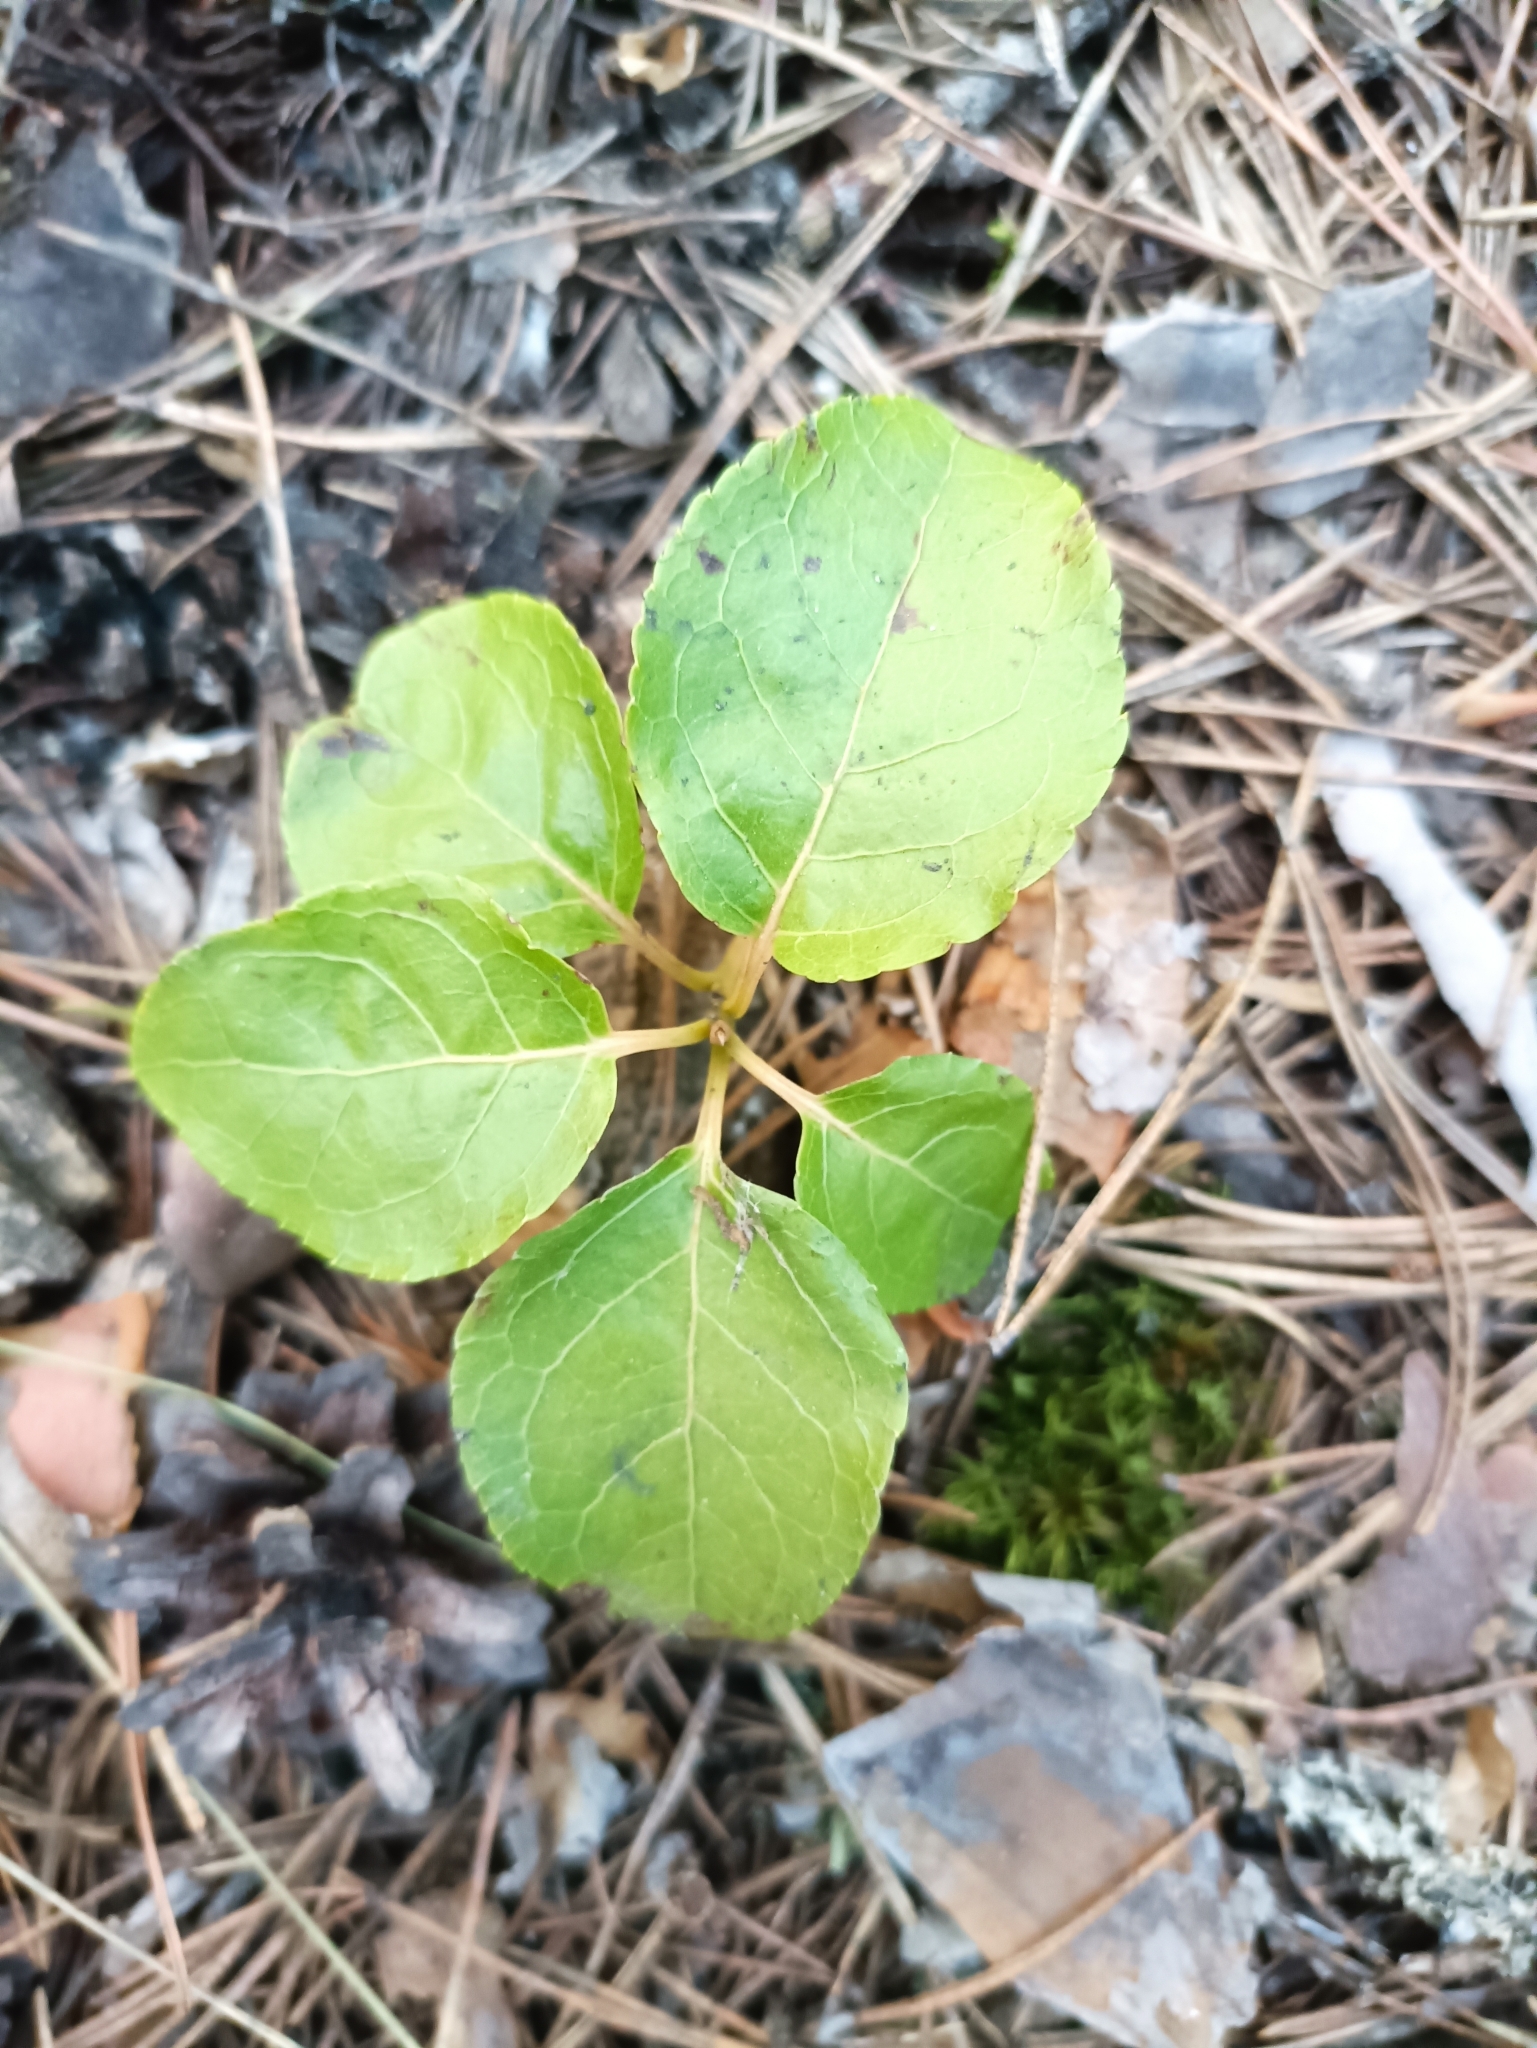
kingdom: Plantae
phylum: Tracheophyta
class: Magnoliopsida
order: Ericales
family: Ericaceae
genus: Orthilia
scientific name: Orthilia secunda
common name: One-sided orthilia
